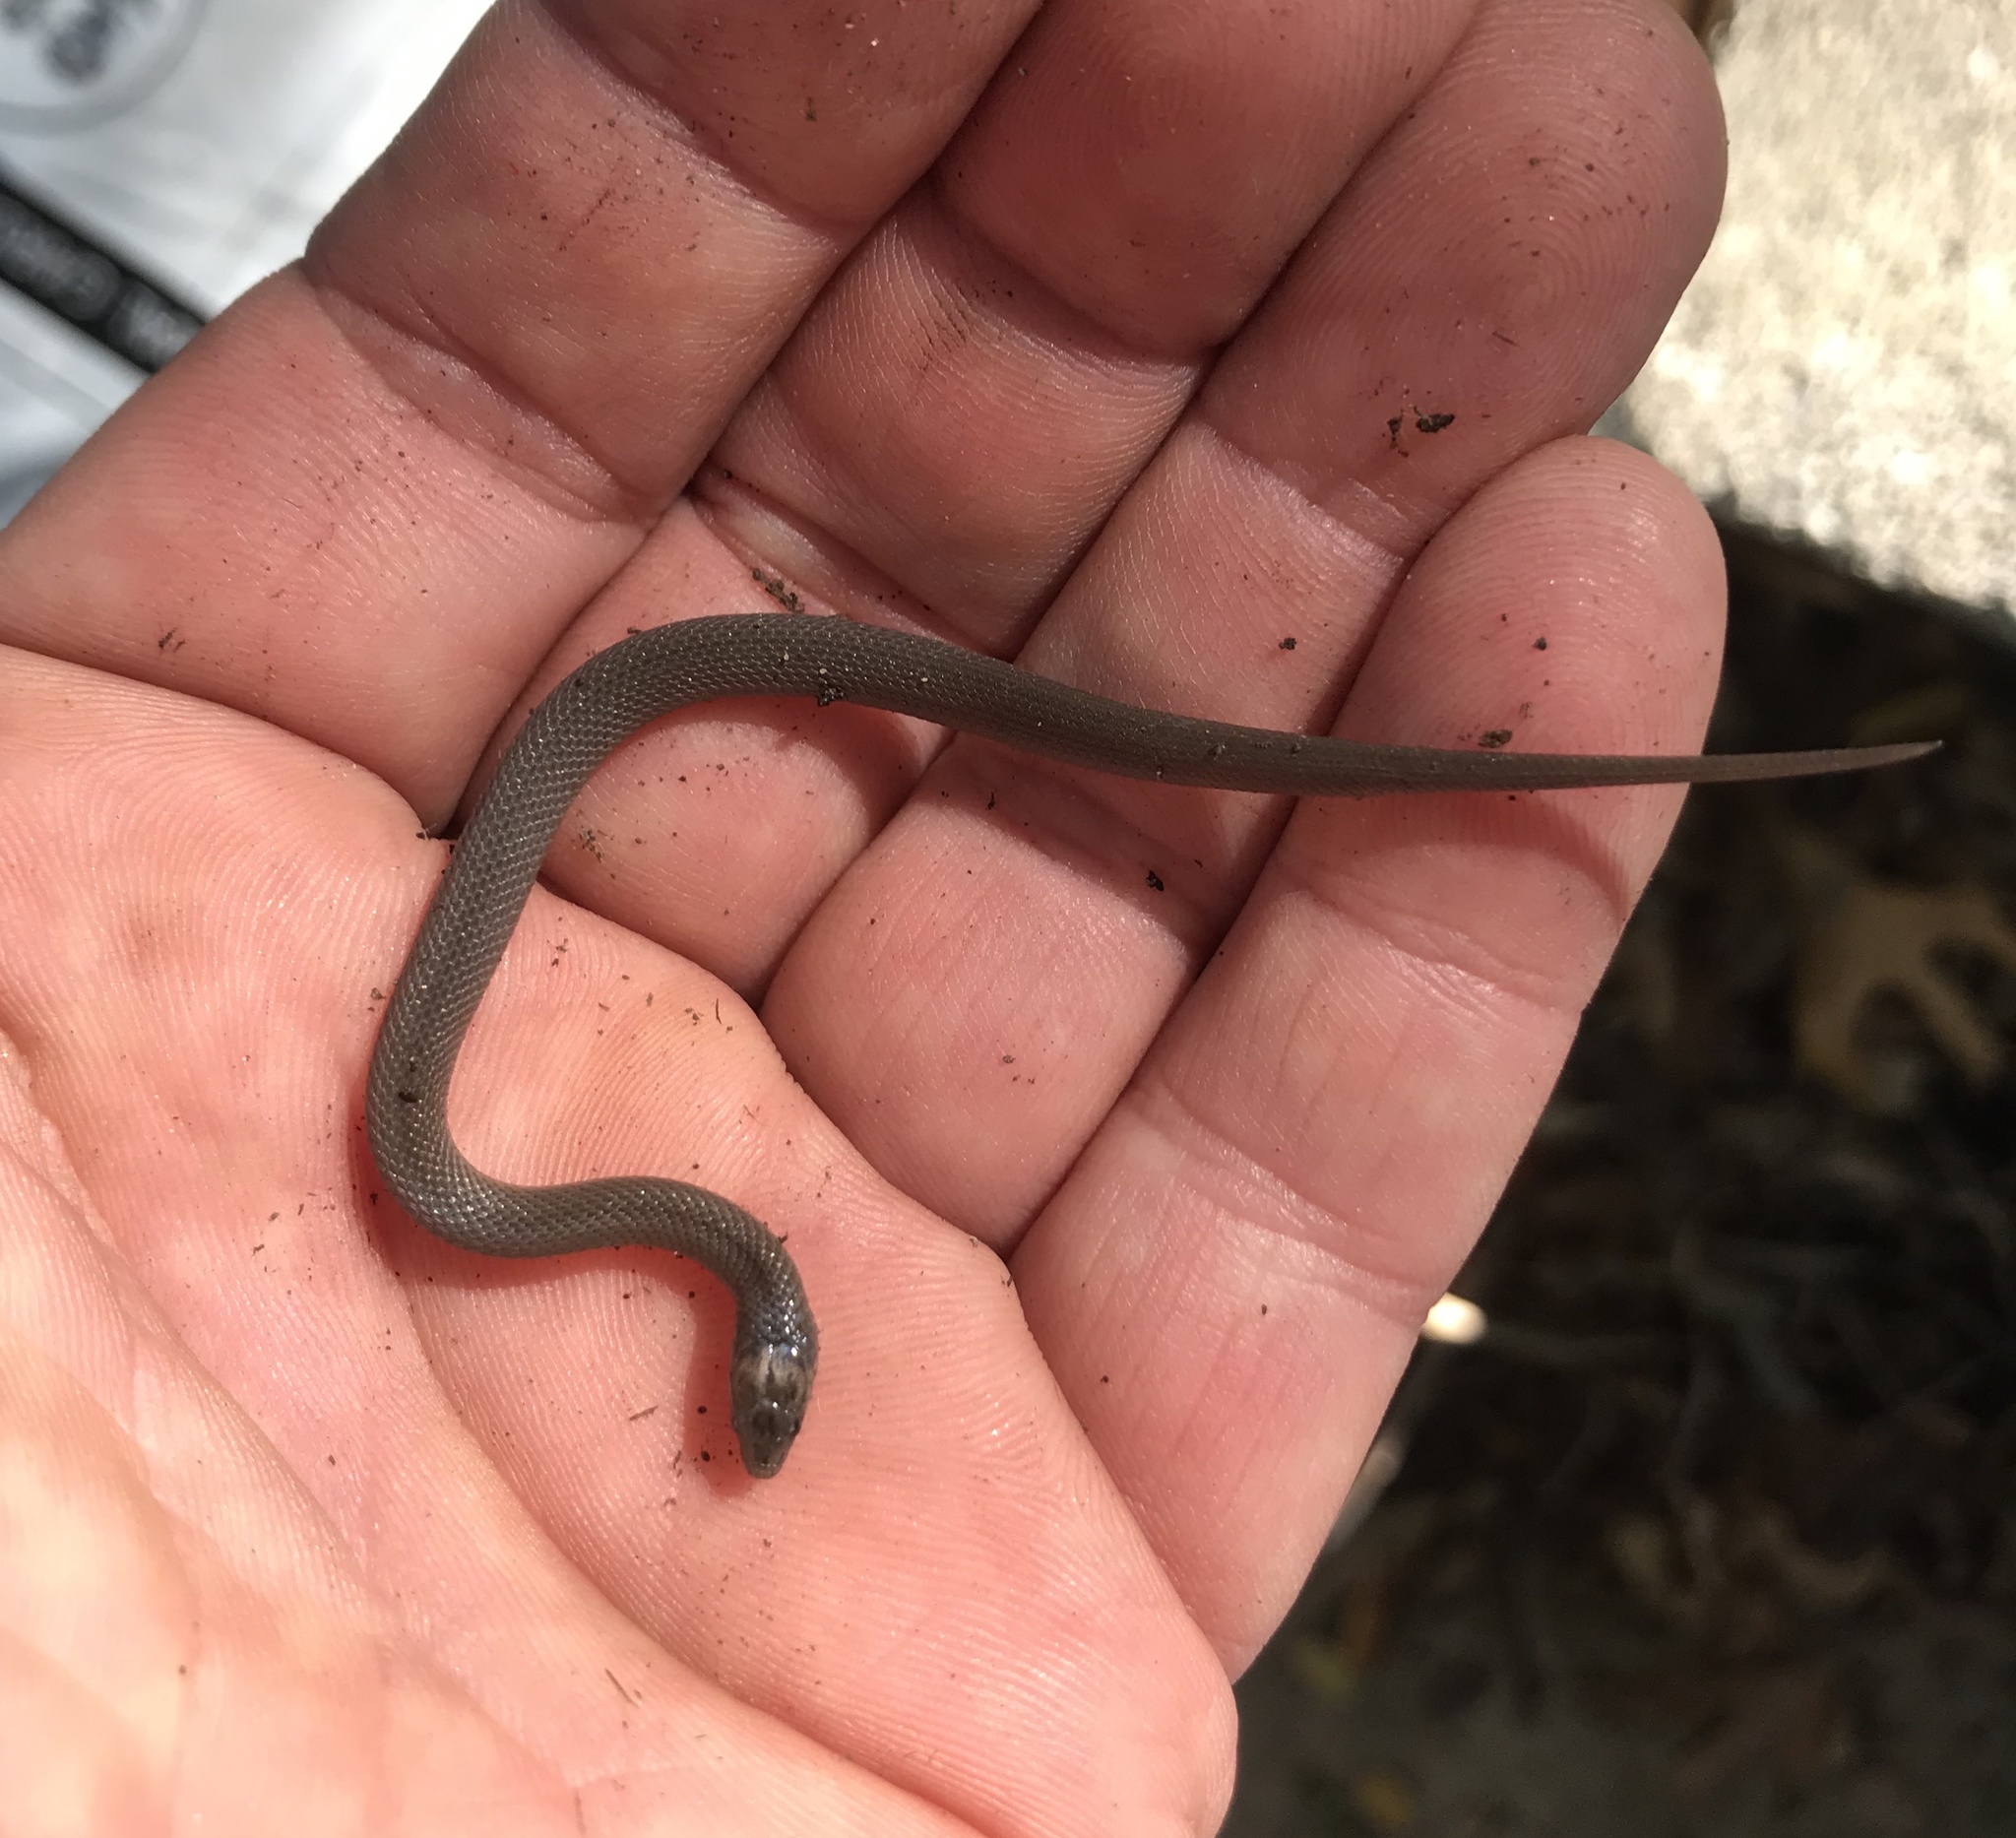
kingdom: Animalia
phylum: Chordata
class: Squamata
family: Colubridae
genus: Haldea
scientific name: Haldea striatula
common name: Rough earth snake
